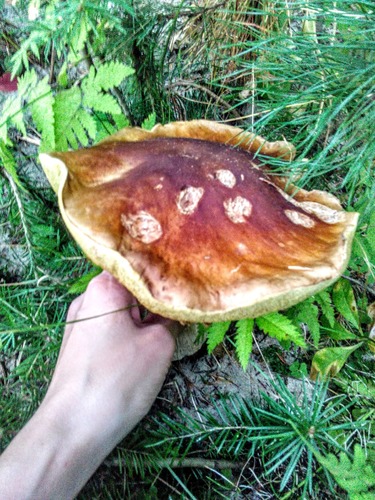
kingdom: Fungi
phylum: Basidiomycota
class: Agaricomycetes
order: Boletales
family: Boletaceae
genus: Boletus
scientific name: Boletus edulis
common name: Cep
